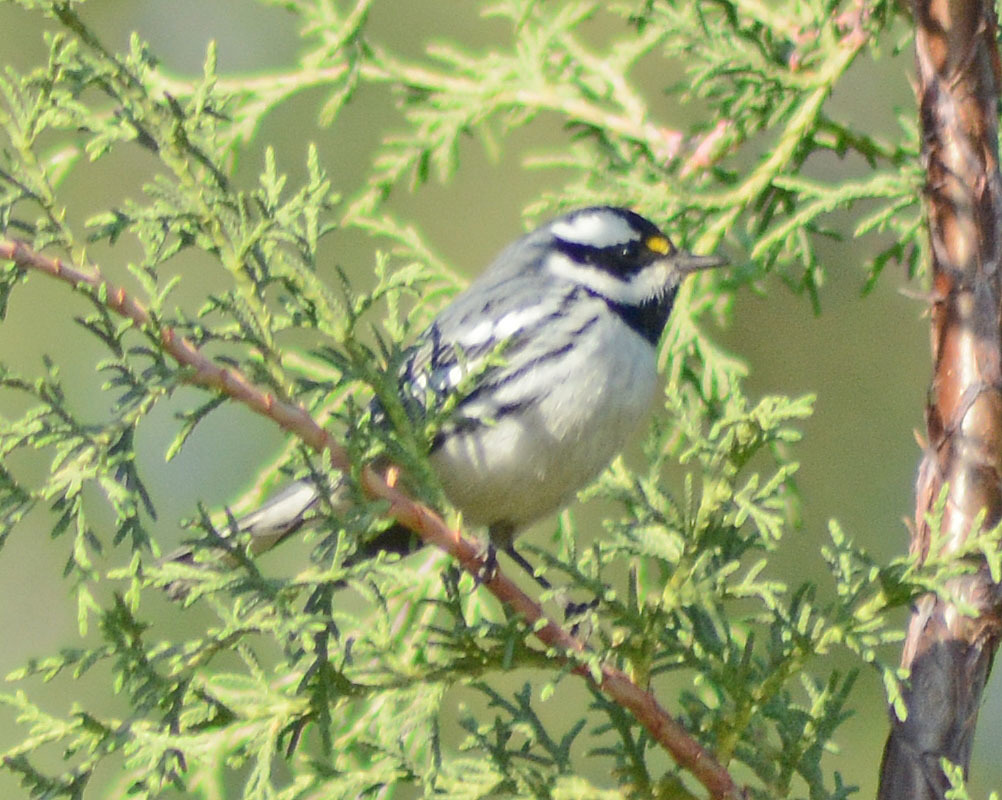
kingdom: Animalia
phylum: Chordata
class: Aves
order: Passeriformes
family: Parulidae
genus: Setophaga
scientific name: Setophaga nigrescens
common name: Black-throated gray warbler
